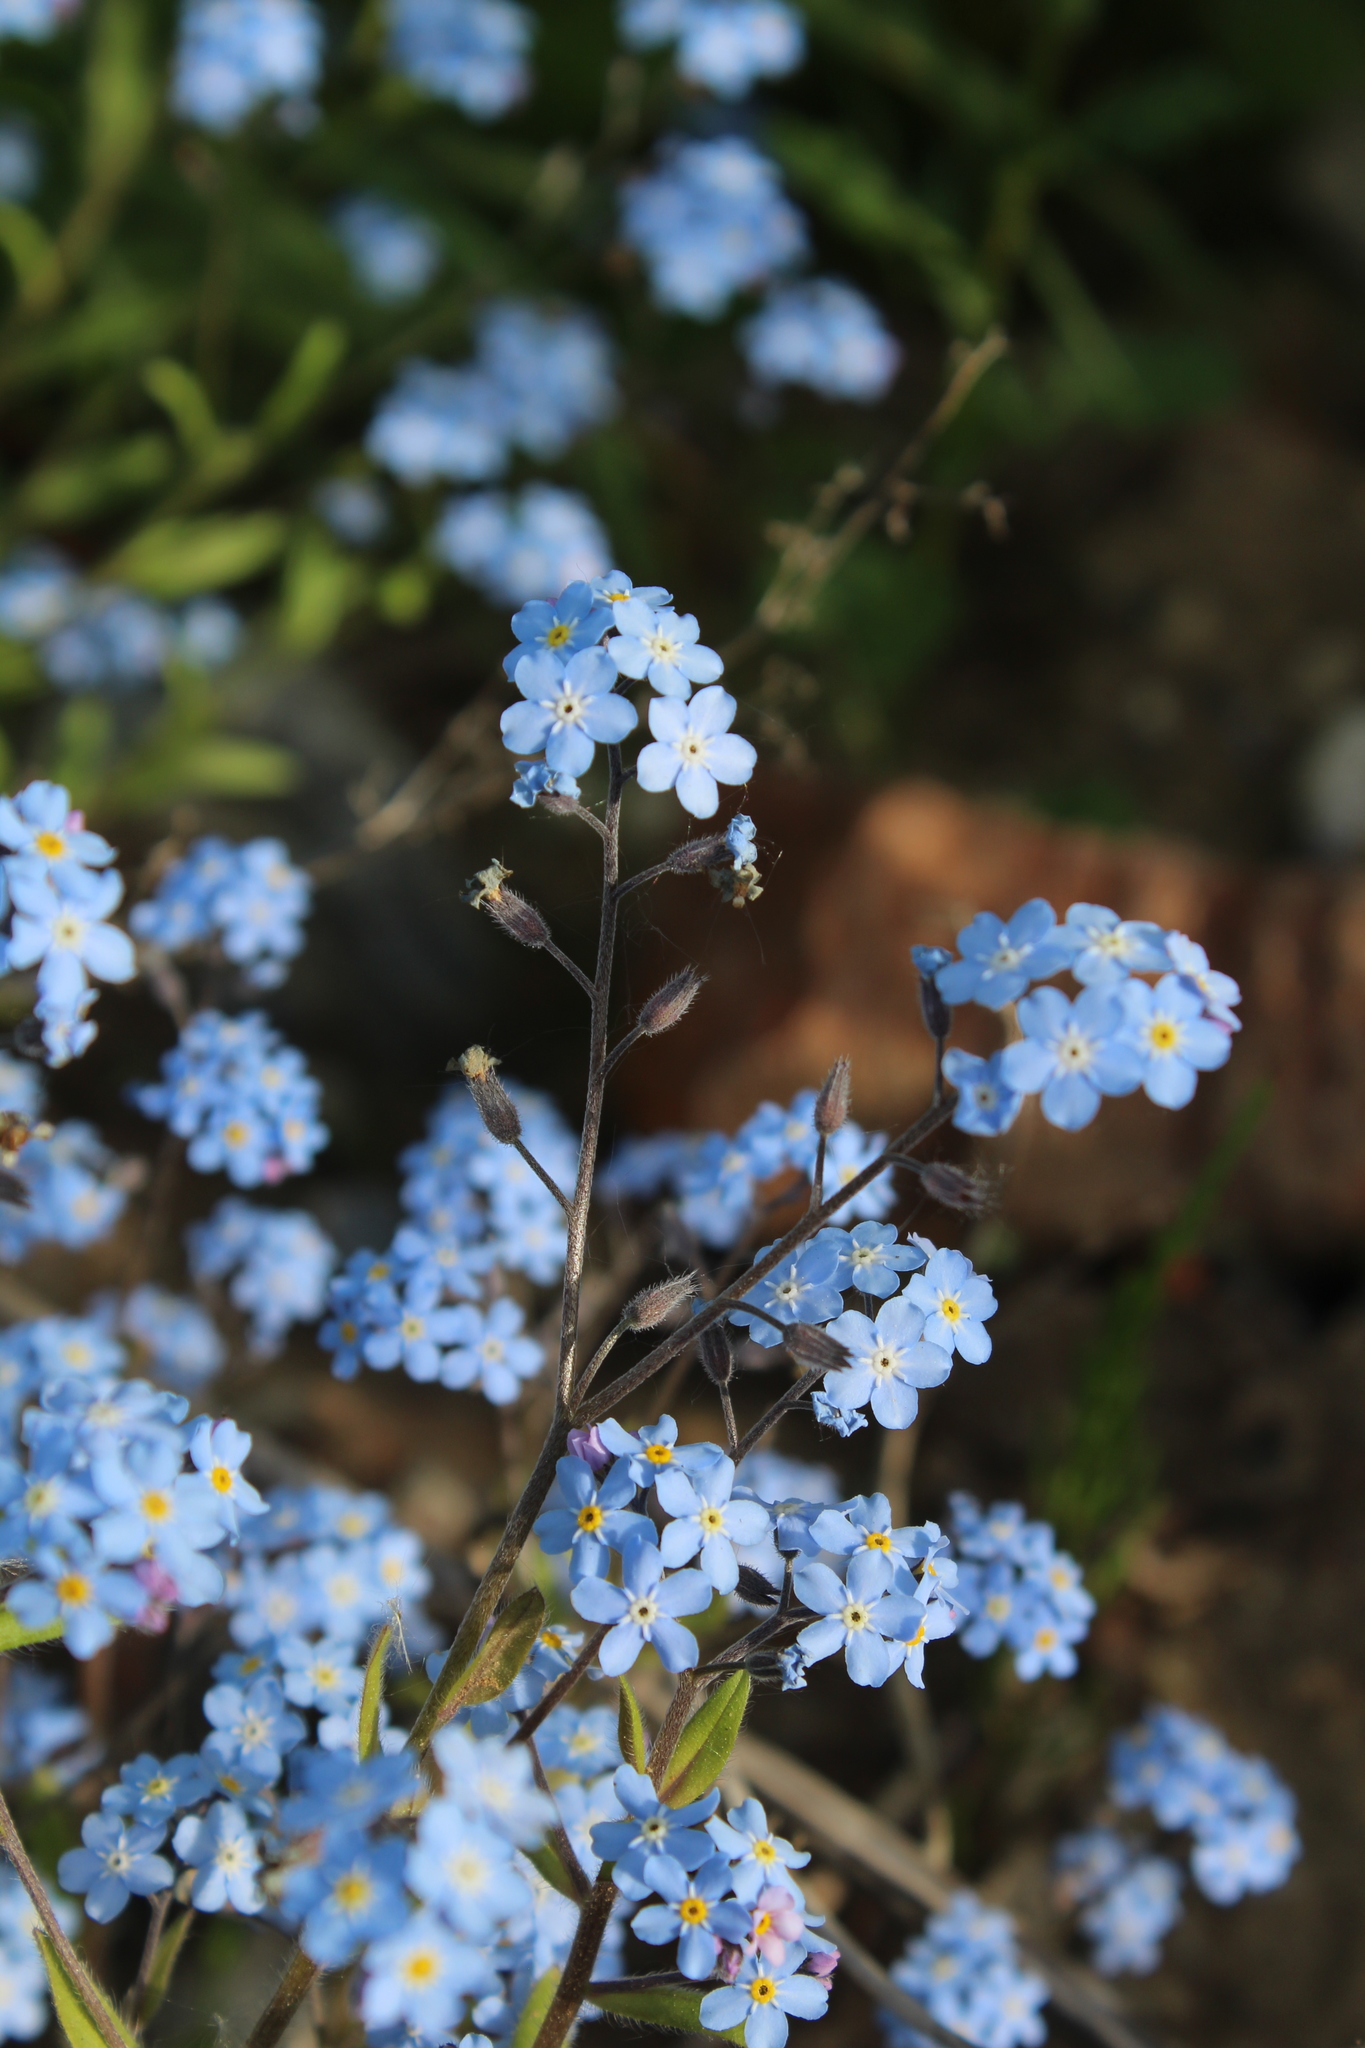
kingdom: Plantae
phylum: Tracheophyta
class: Magnoliopsida
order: Boraginales
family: Boraginaceae
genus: Myosotis
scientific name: Myosotis sylvatica
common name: Wood forget-me-not
